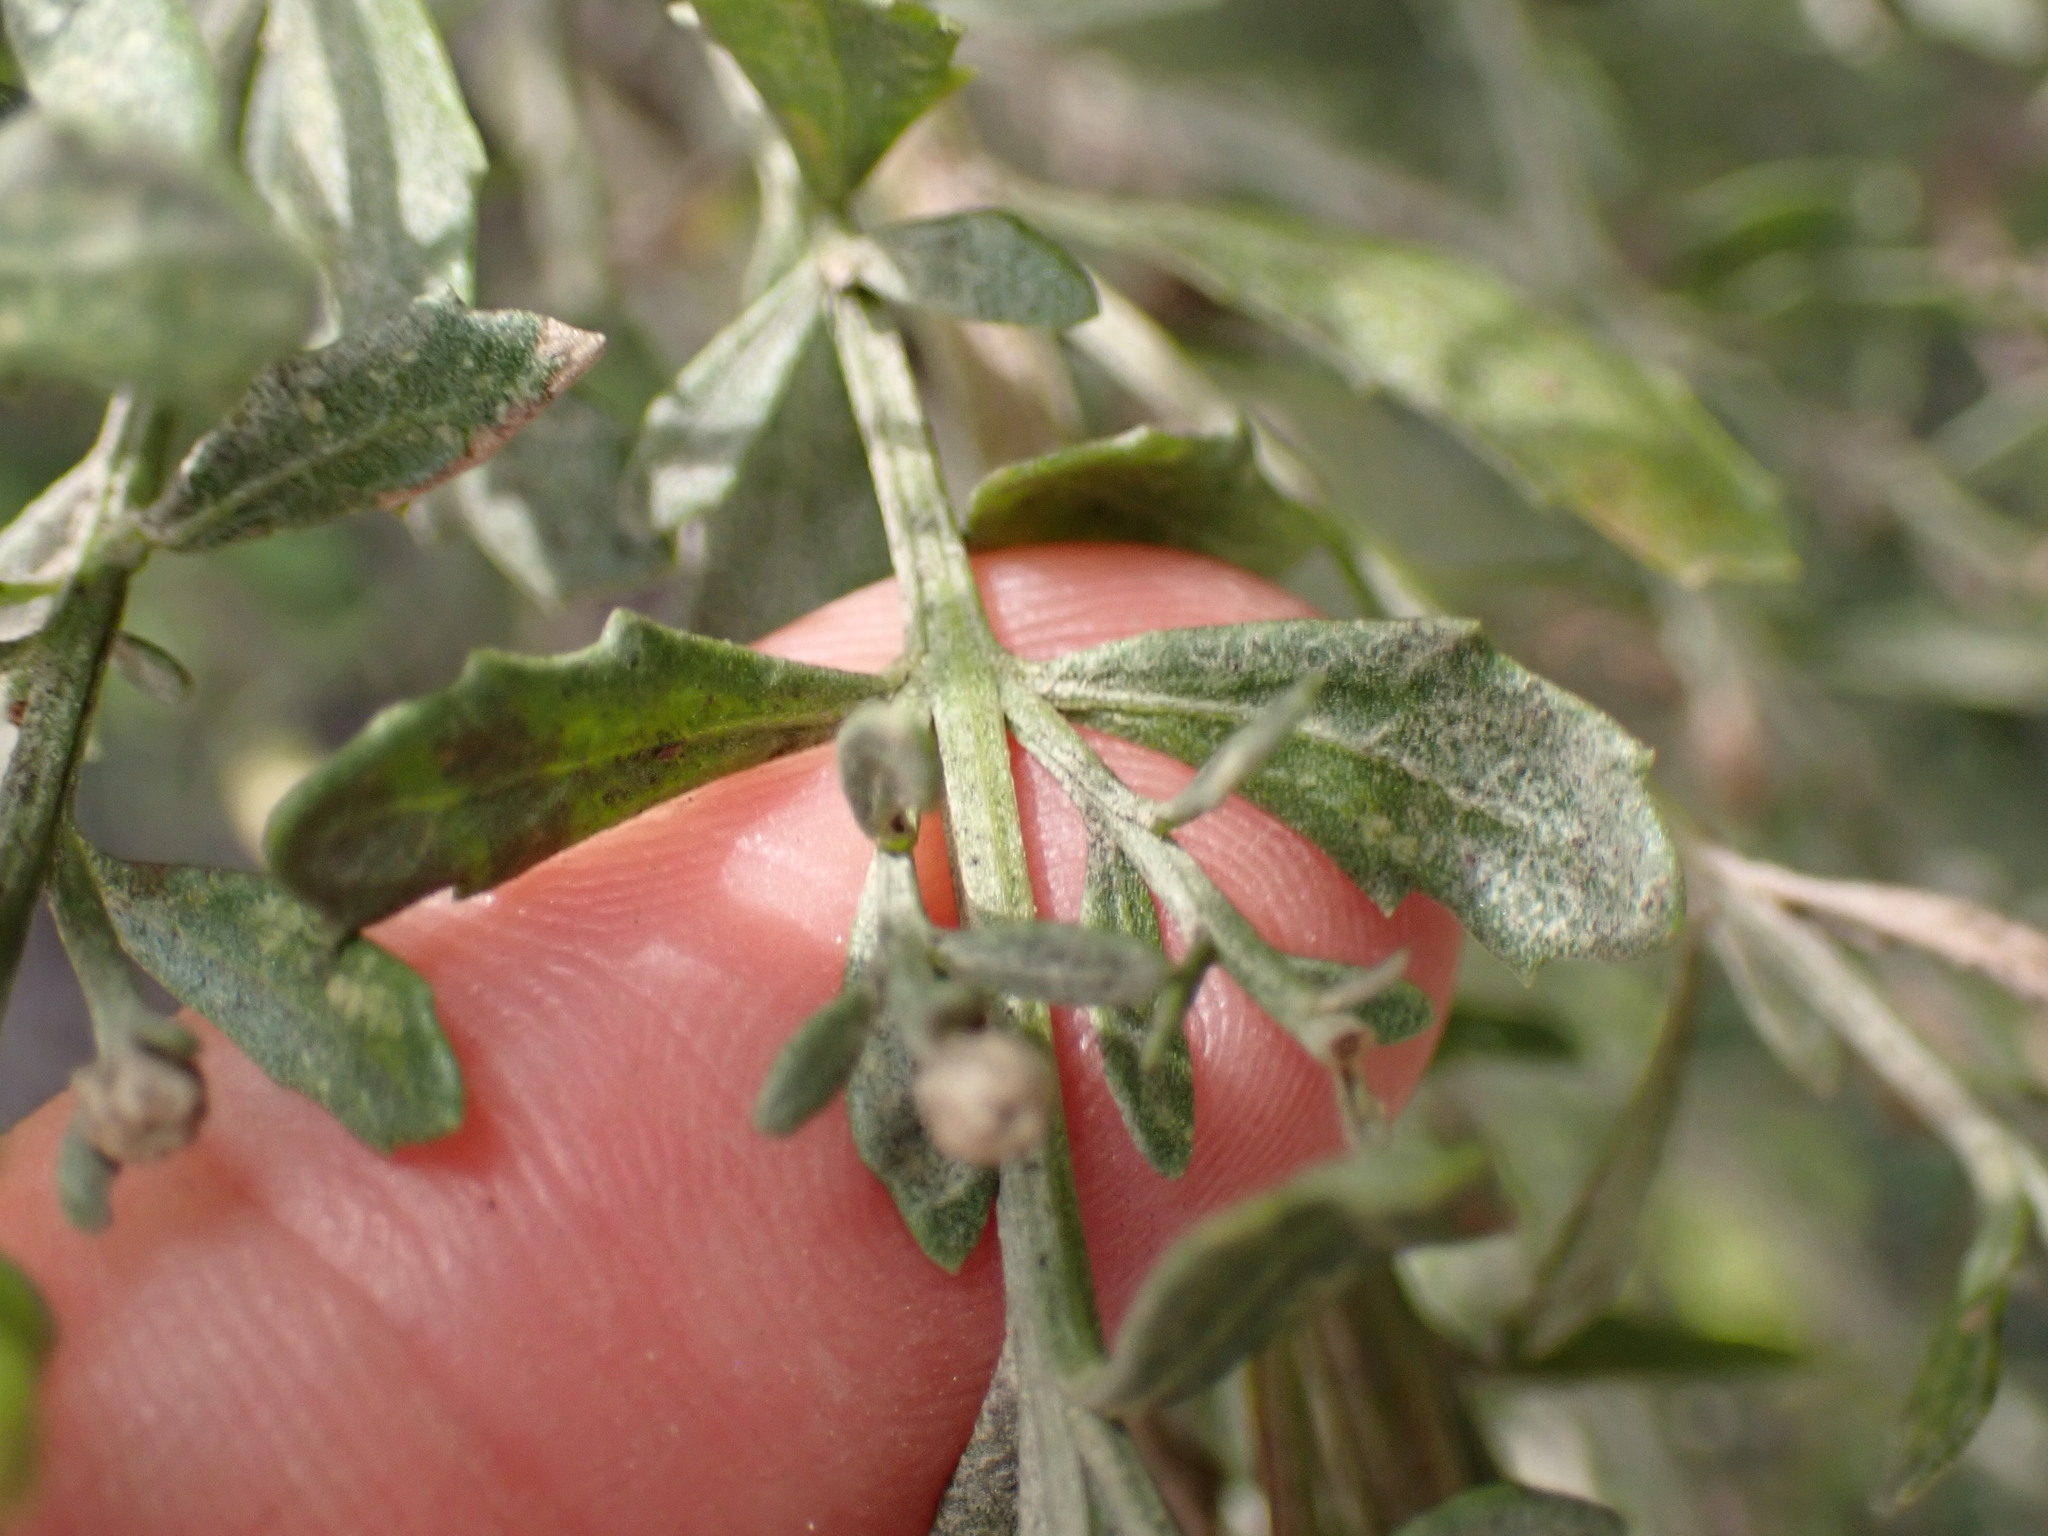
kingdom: Plantae
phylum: Tracheophyta
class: Magnoliopsida
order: Asterales
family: Asteraceae
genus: Baccharis
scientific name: Baccharis pilularis
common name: Coyotebrush
